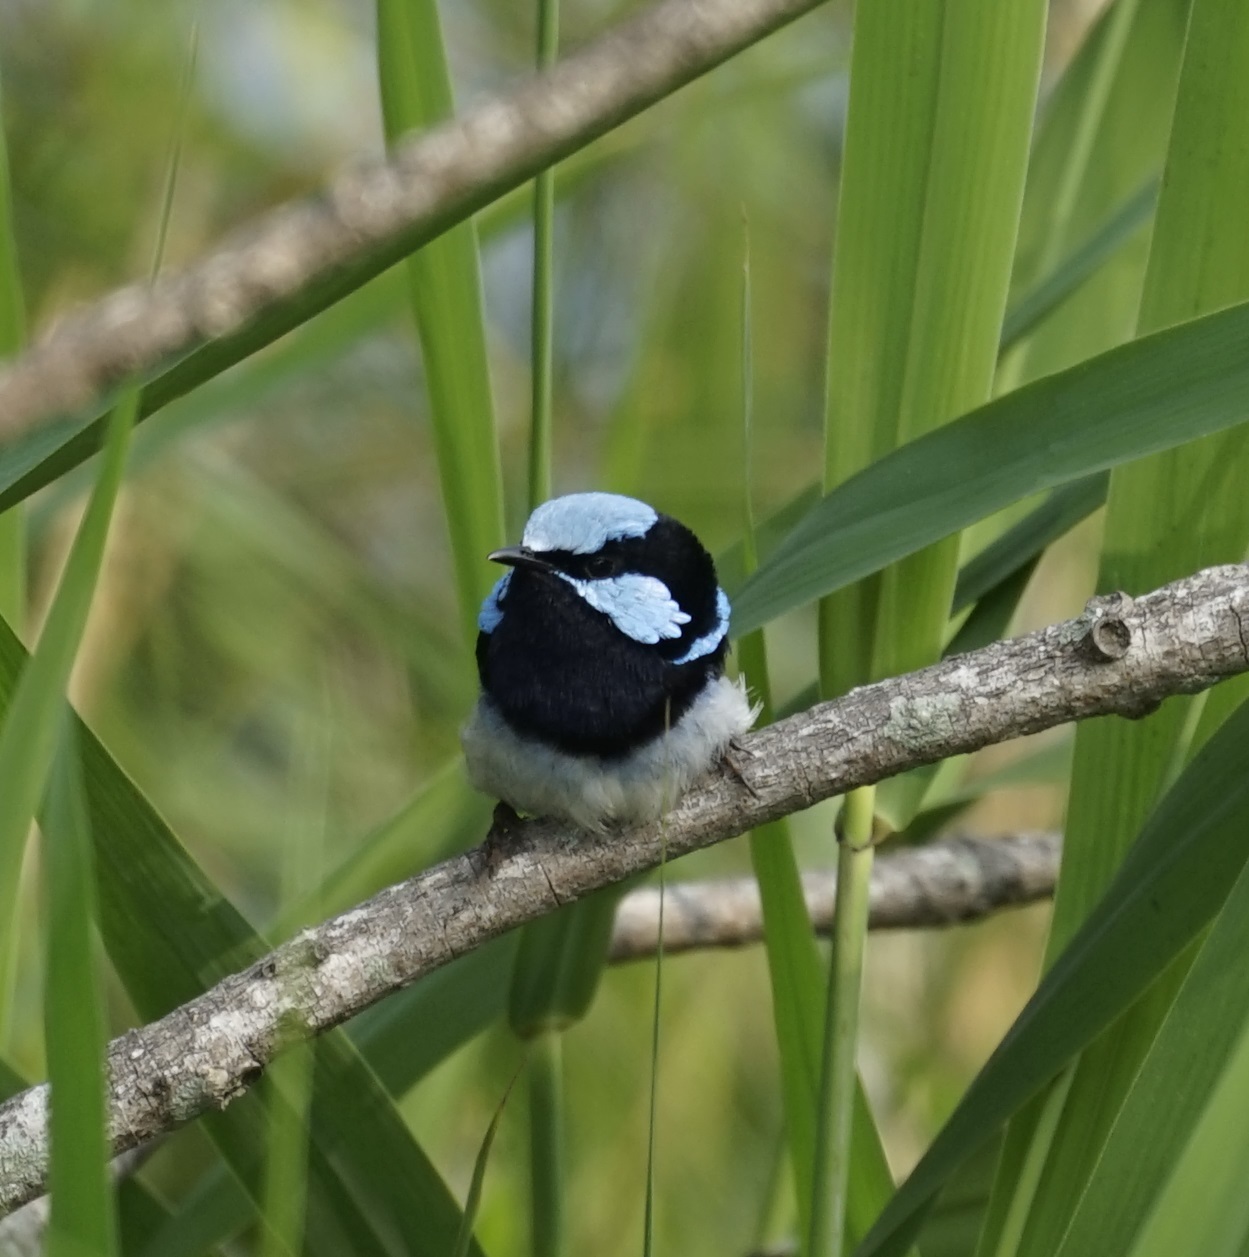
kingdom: Animalia
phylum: Chordata
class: Aves
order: Passeriformes
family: Maluridae
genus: Malurus
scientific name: Malurus cyaneus
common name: Superb fairywren
